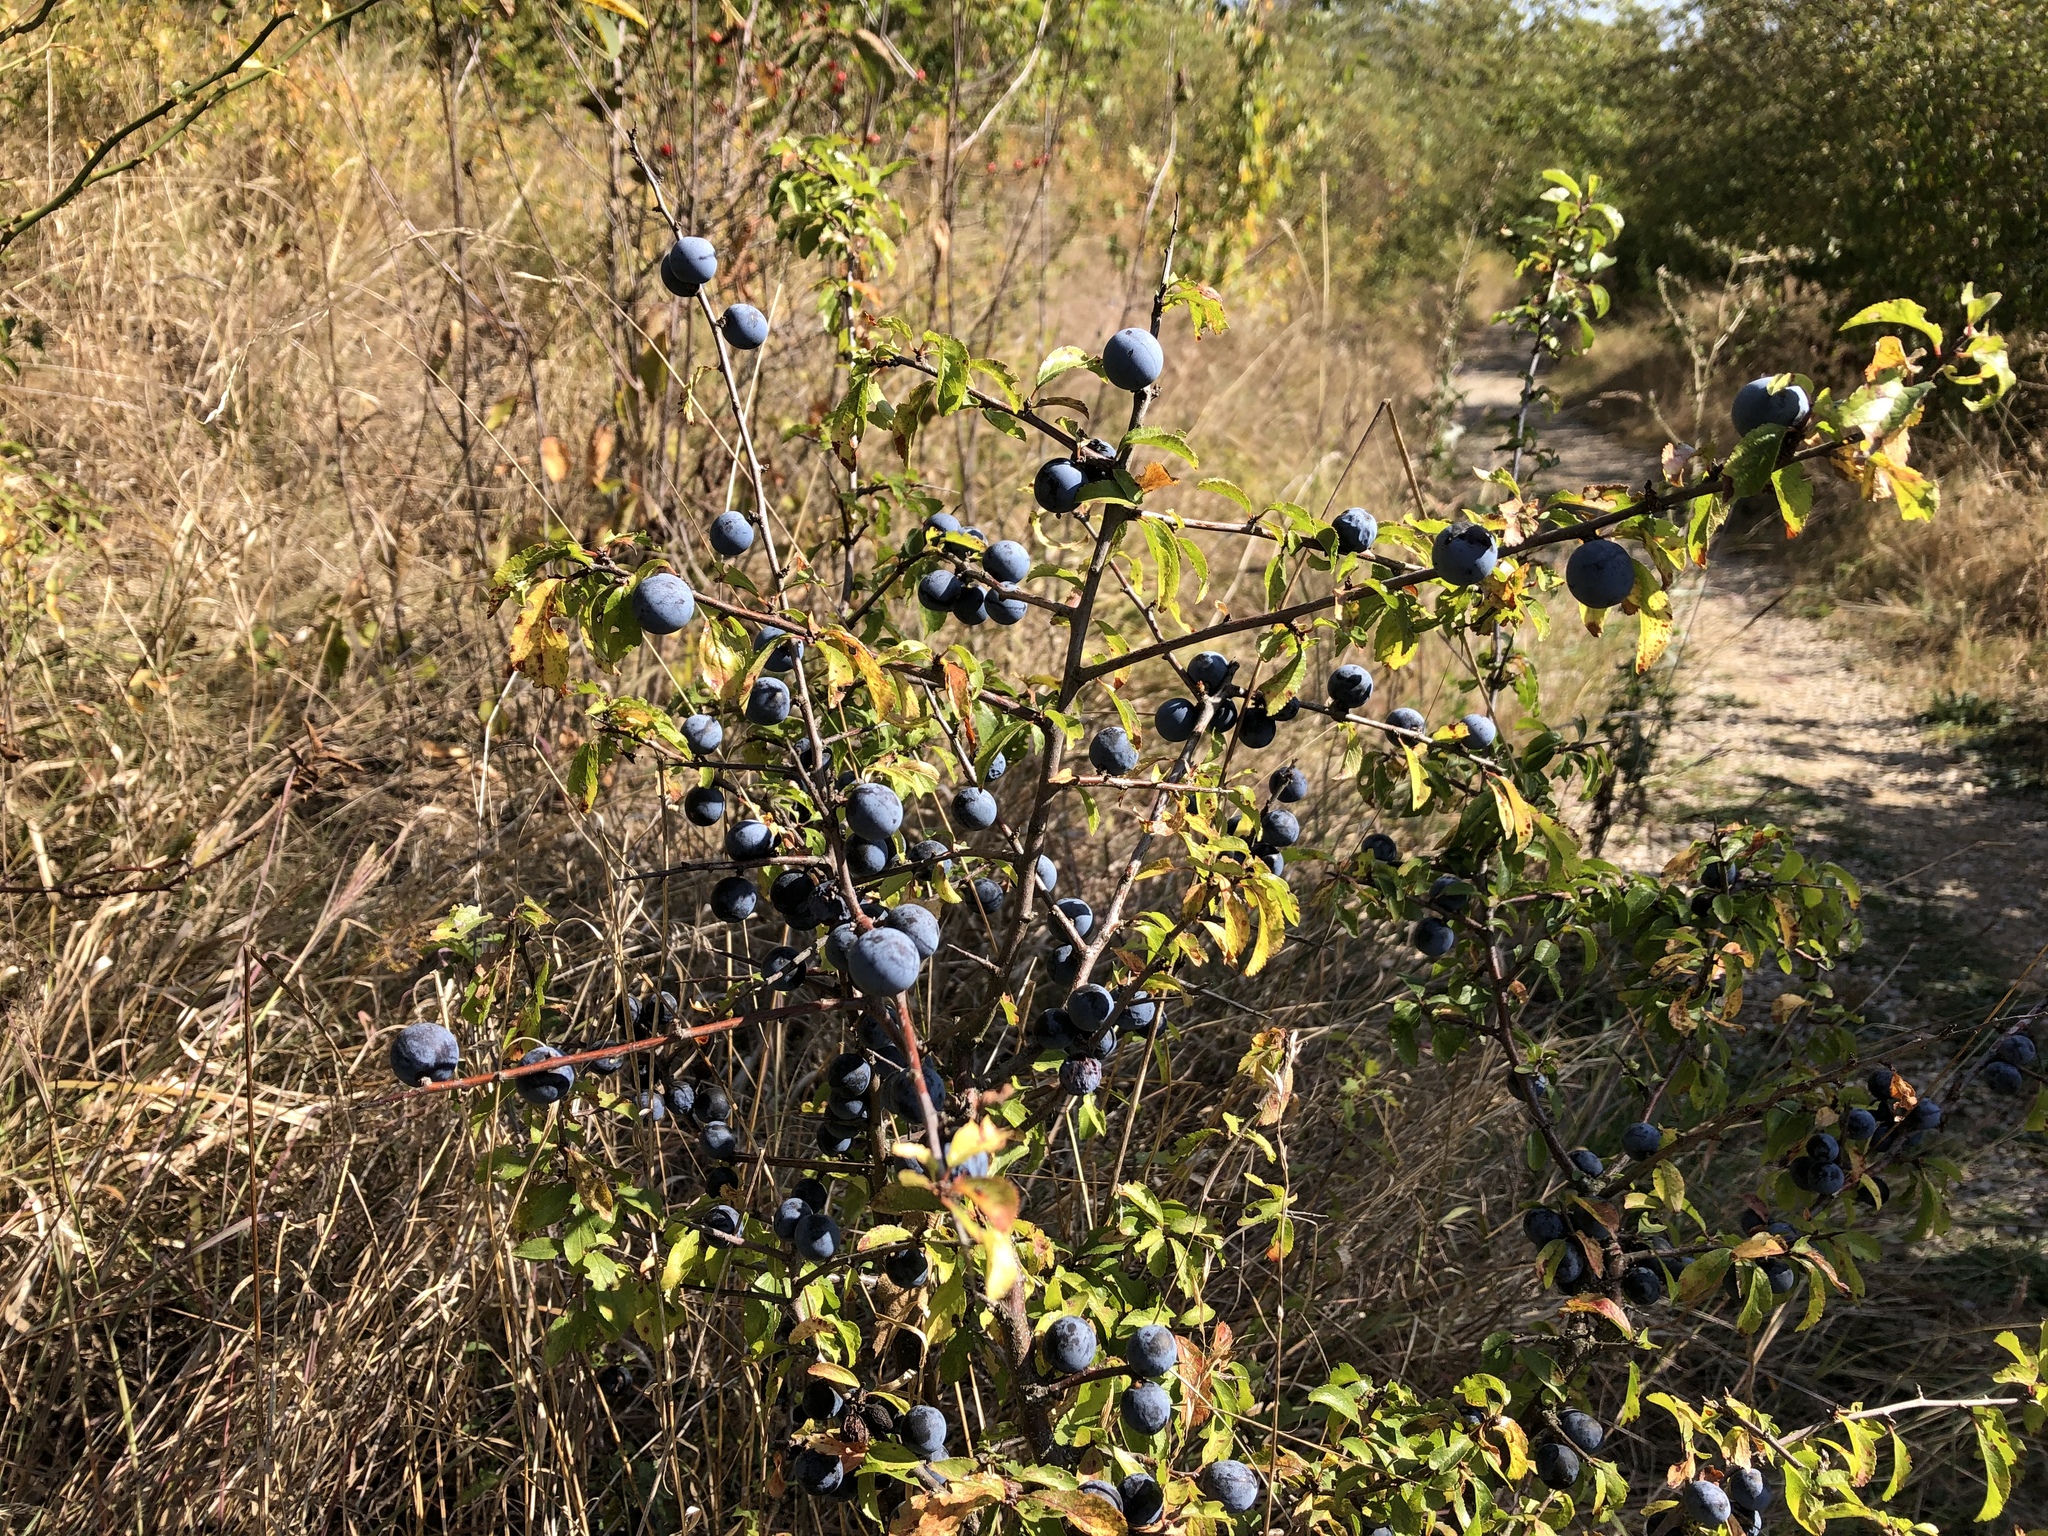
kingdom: Plantae
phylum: Tracheophyta
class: Magnoliopsida
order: Rosales
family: Rosaceae
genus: Prunus
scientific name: Prunus spinosa
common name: Blackthorn
